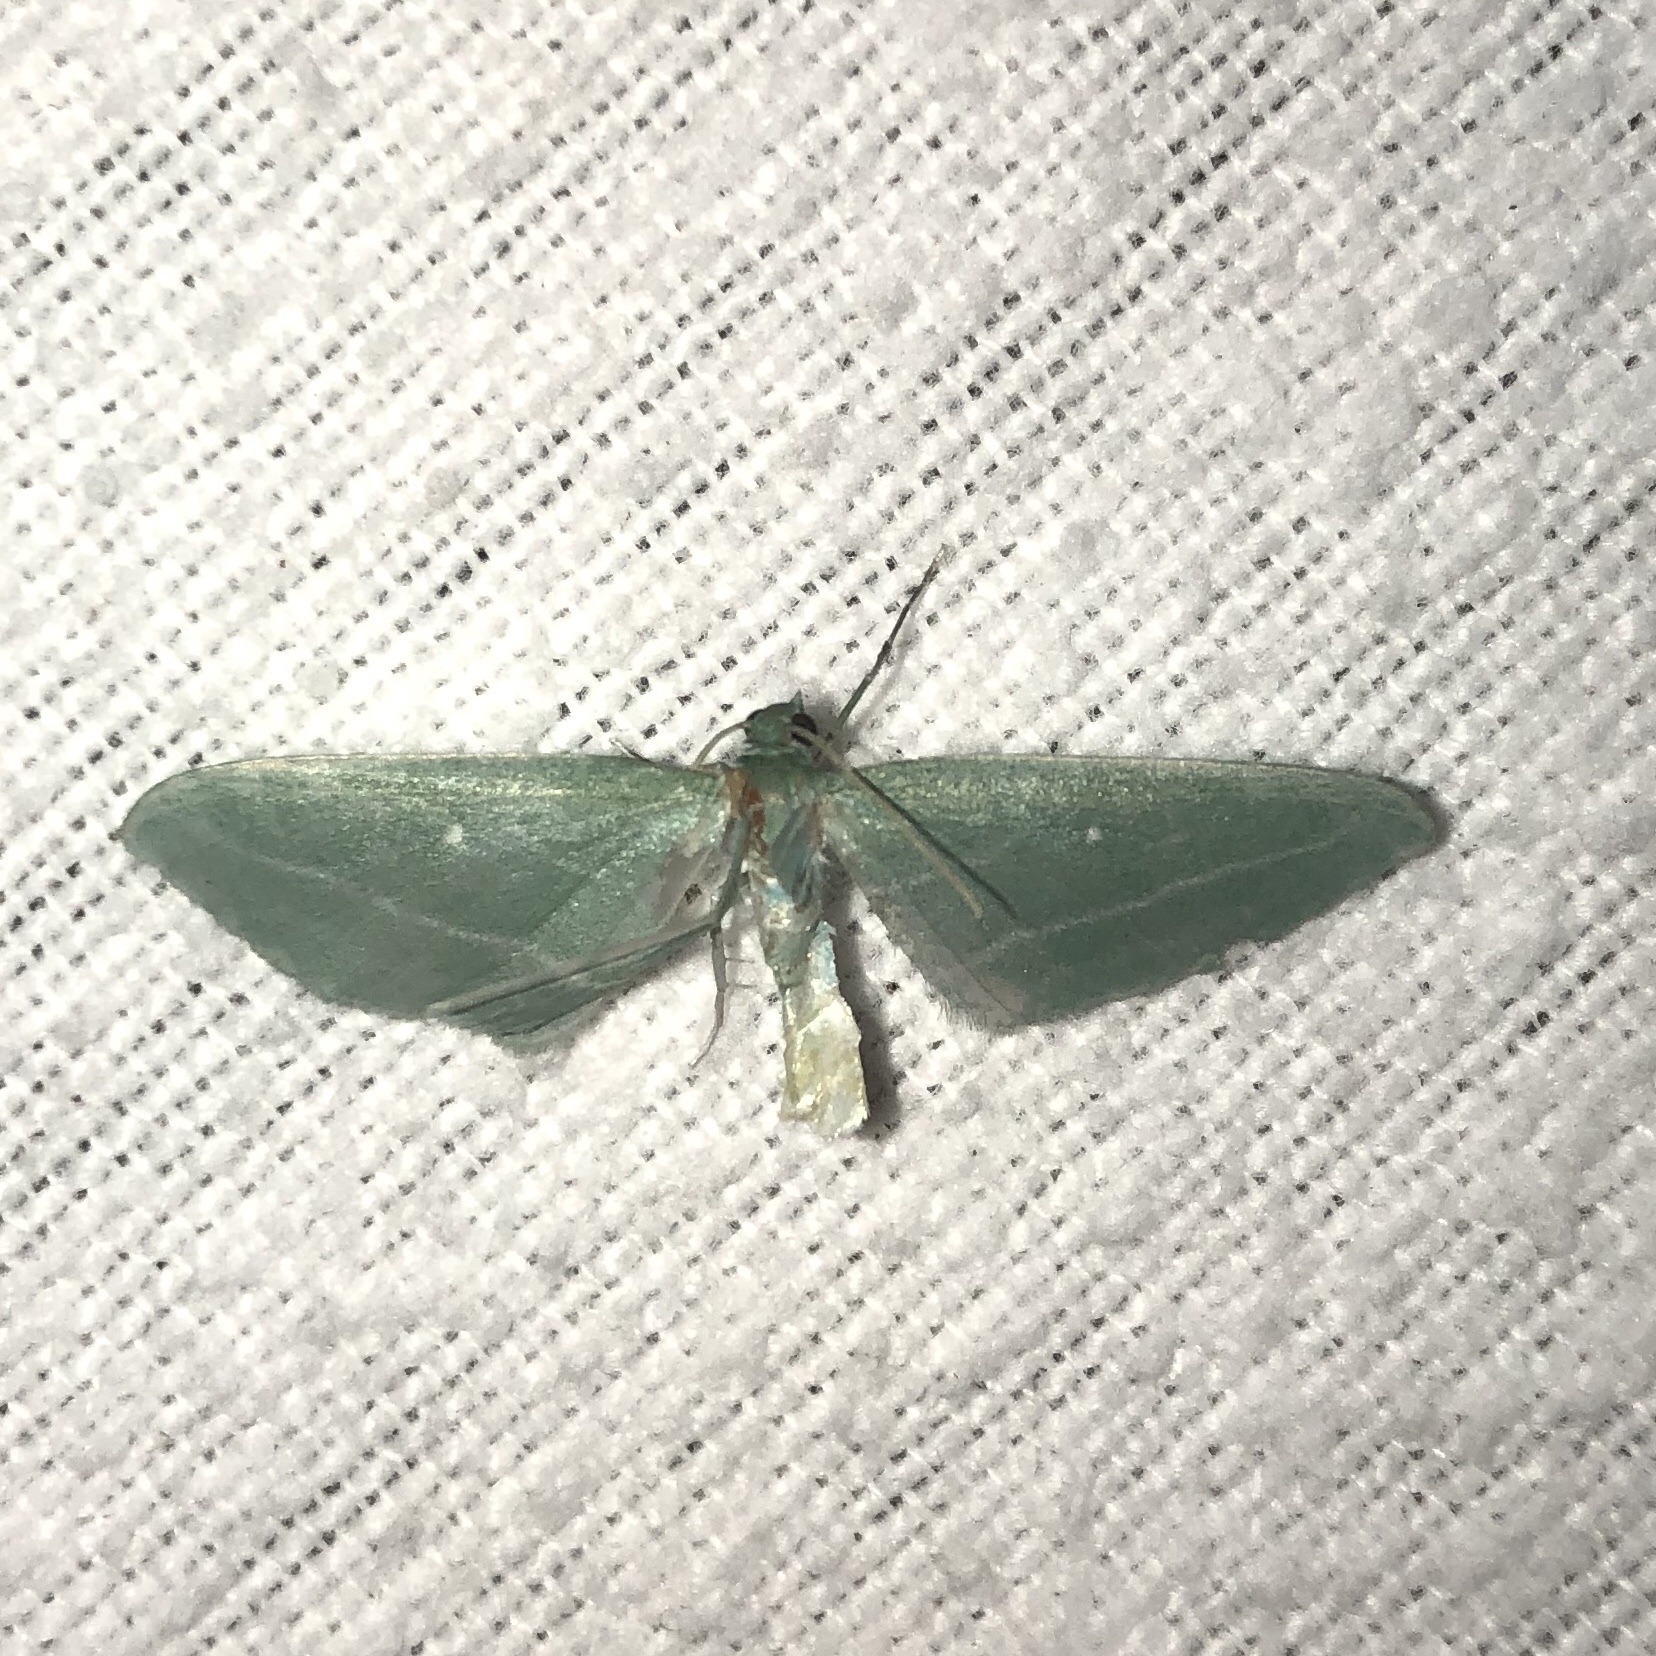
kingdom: Animalia
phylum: Arthropoda
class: Insecta
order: Lepidoptera
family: Geometridae
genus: Dyspteris
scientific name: Dyspteris abortivaria
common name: Bad-wing
